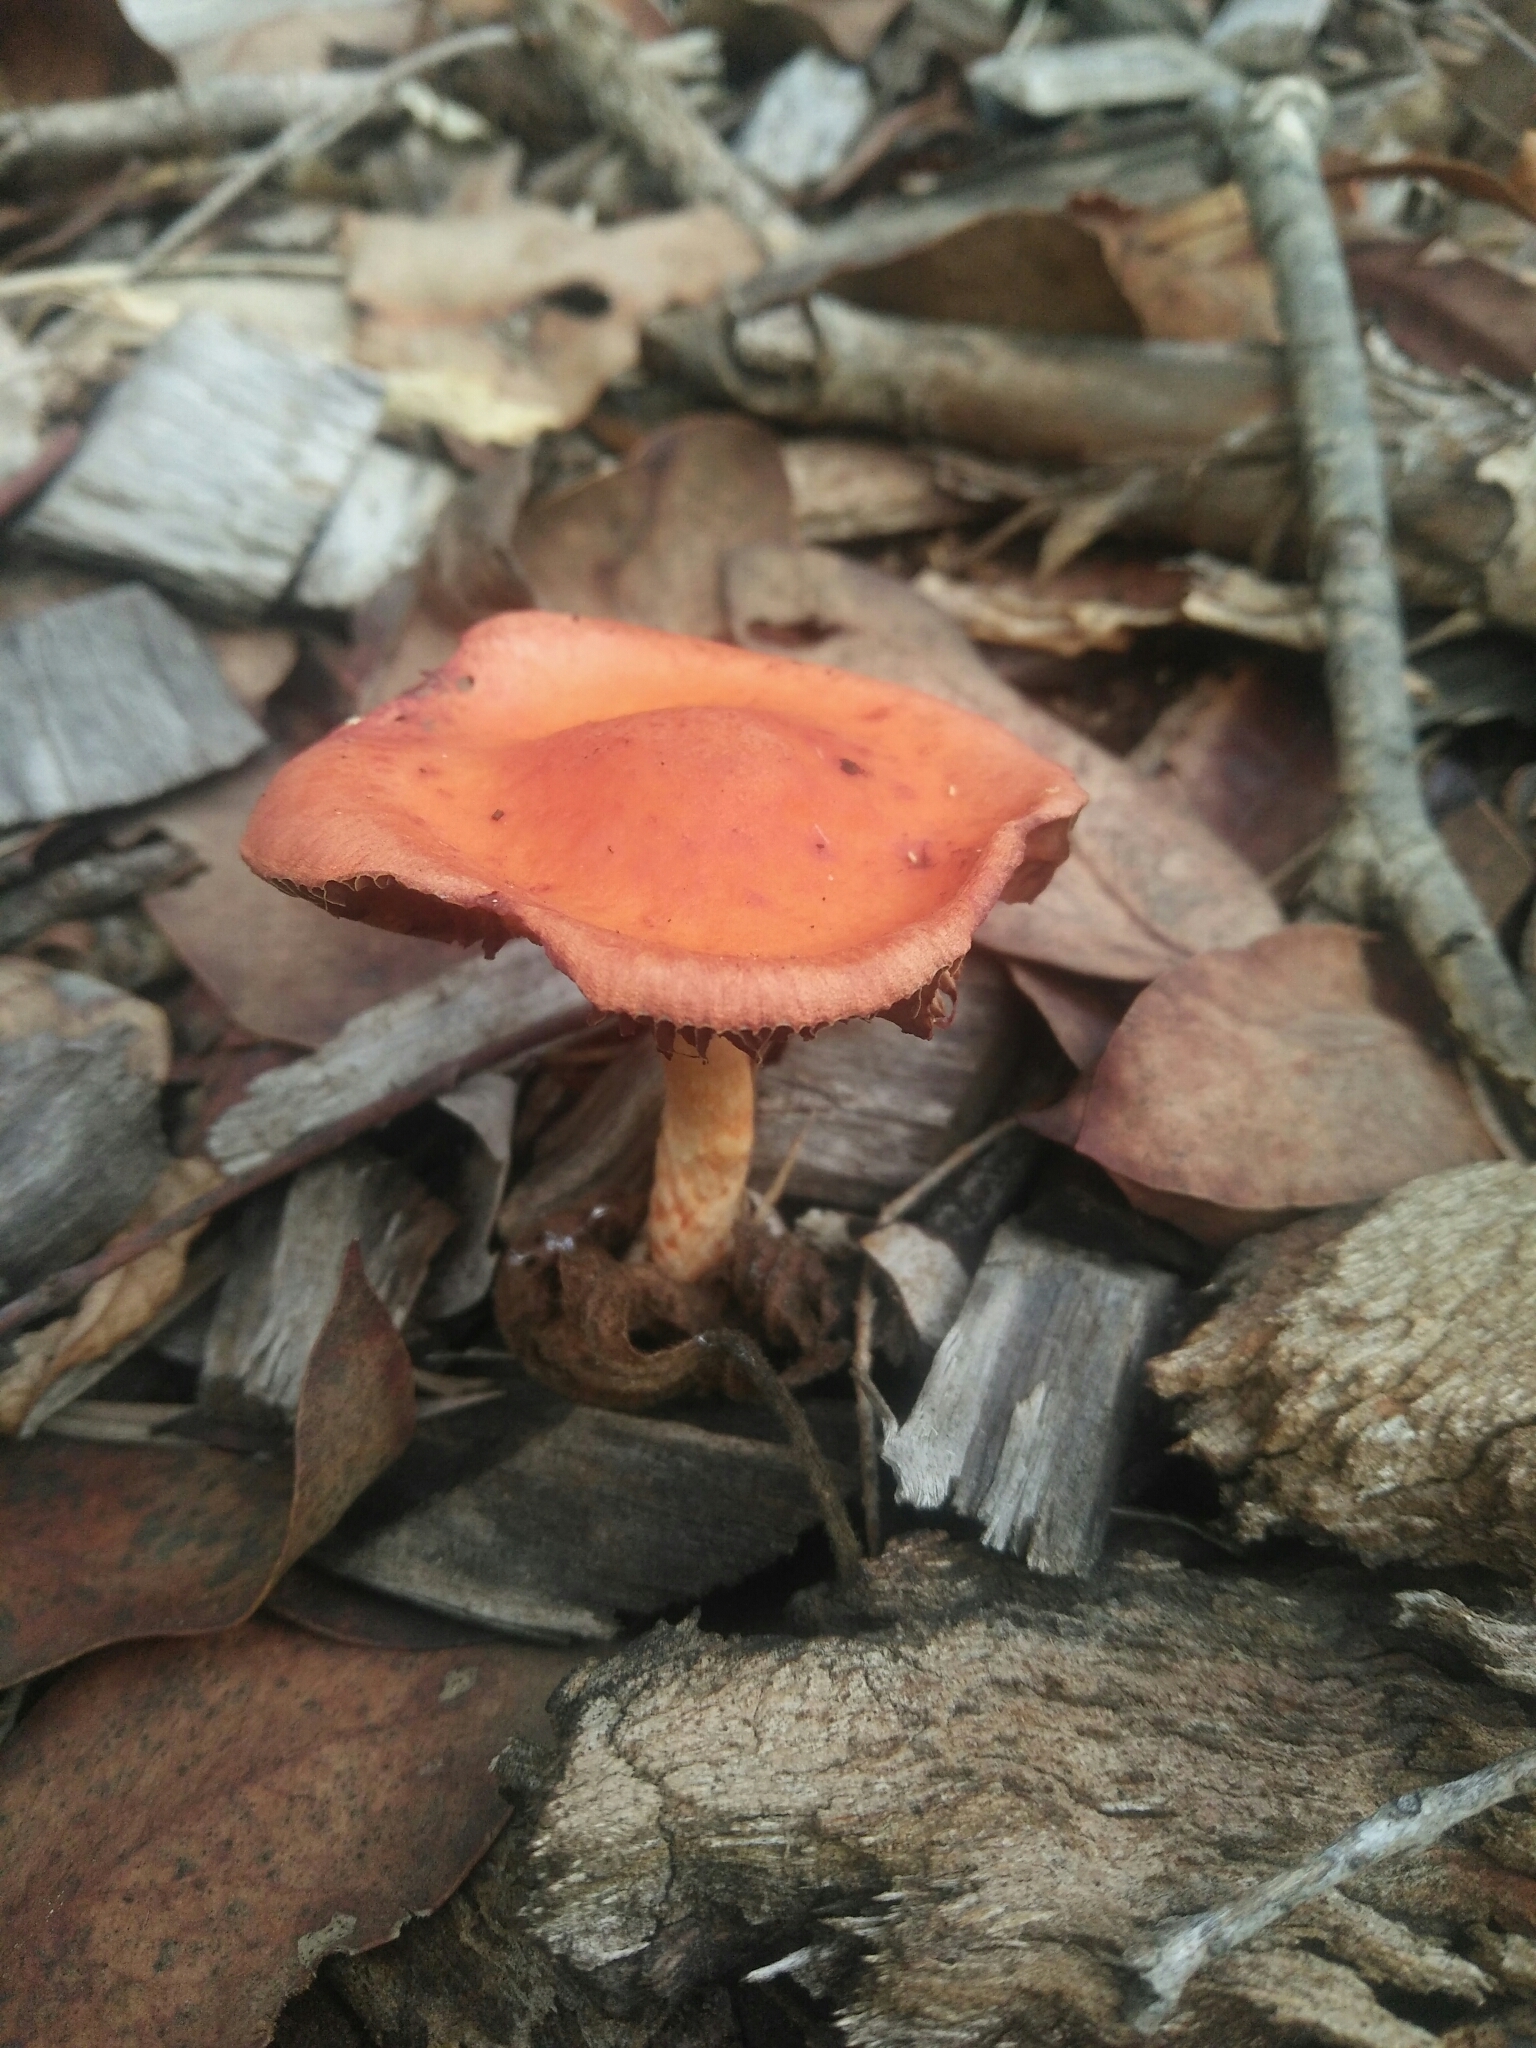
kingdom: Fungi
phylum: Basidiomycota
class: Agaricomycetes
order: Agaricales
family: Strophariaceae
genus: Leratiomyces
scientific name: Leratiomyces ceres
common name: Redlead roundhead
